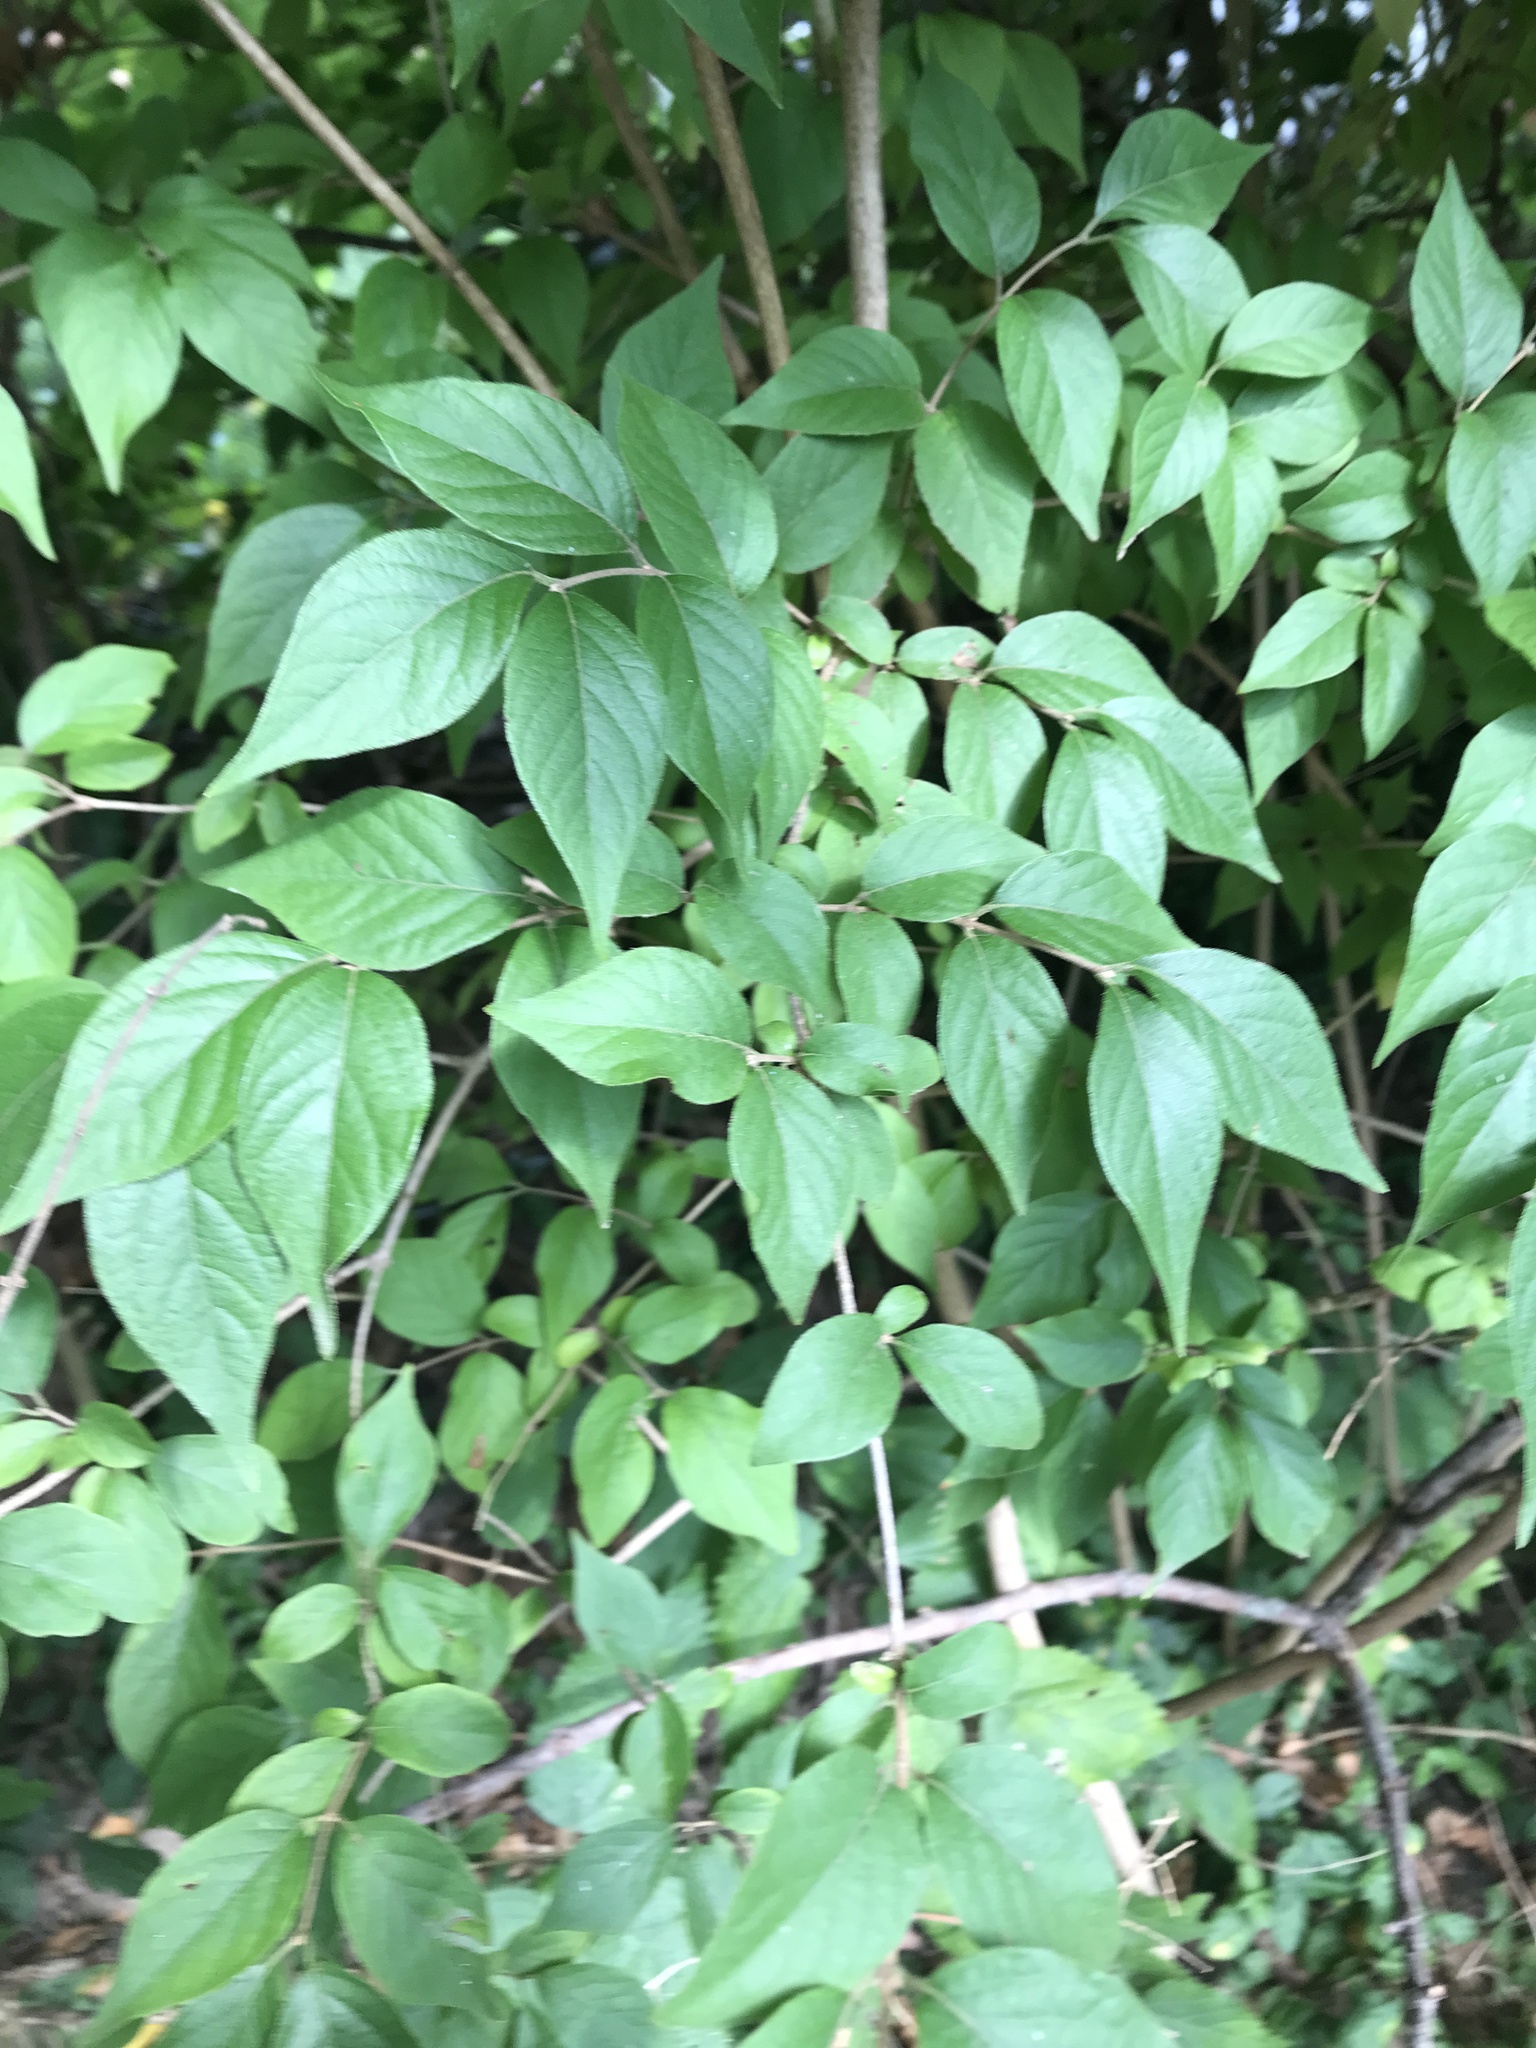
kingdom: Plantae
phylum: Tracheophyta
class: Magnoliopsida
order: Dipsacales
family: Caprifoliaceae
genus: Lonicera
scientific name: Lonicera maackii
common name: Amur honeysuckle
